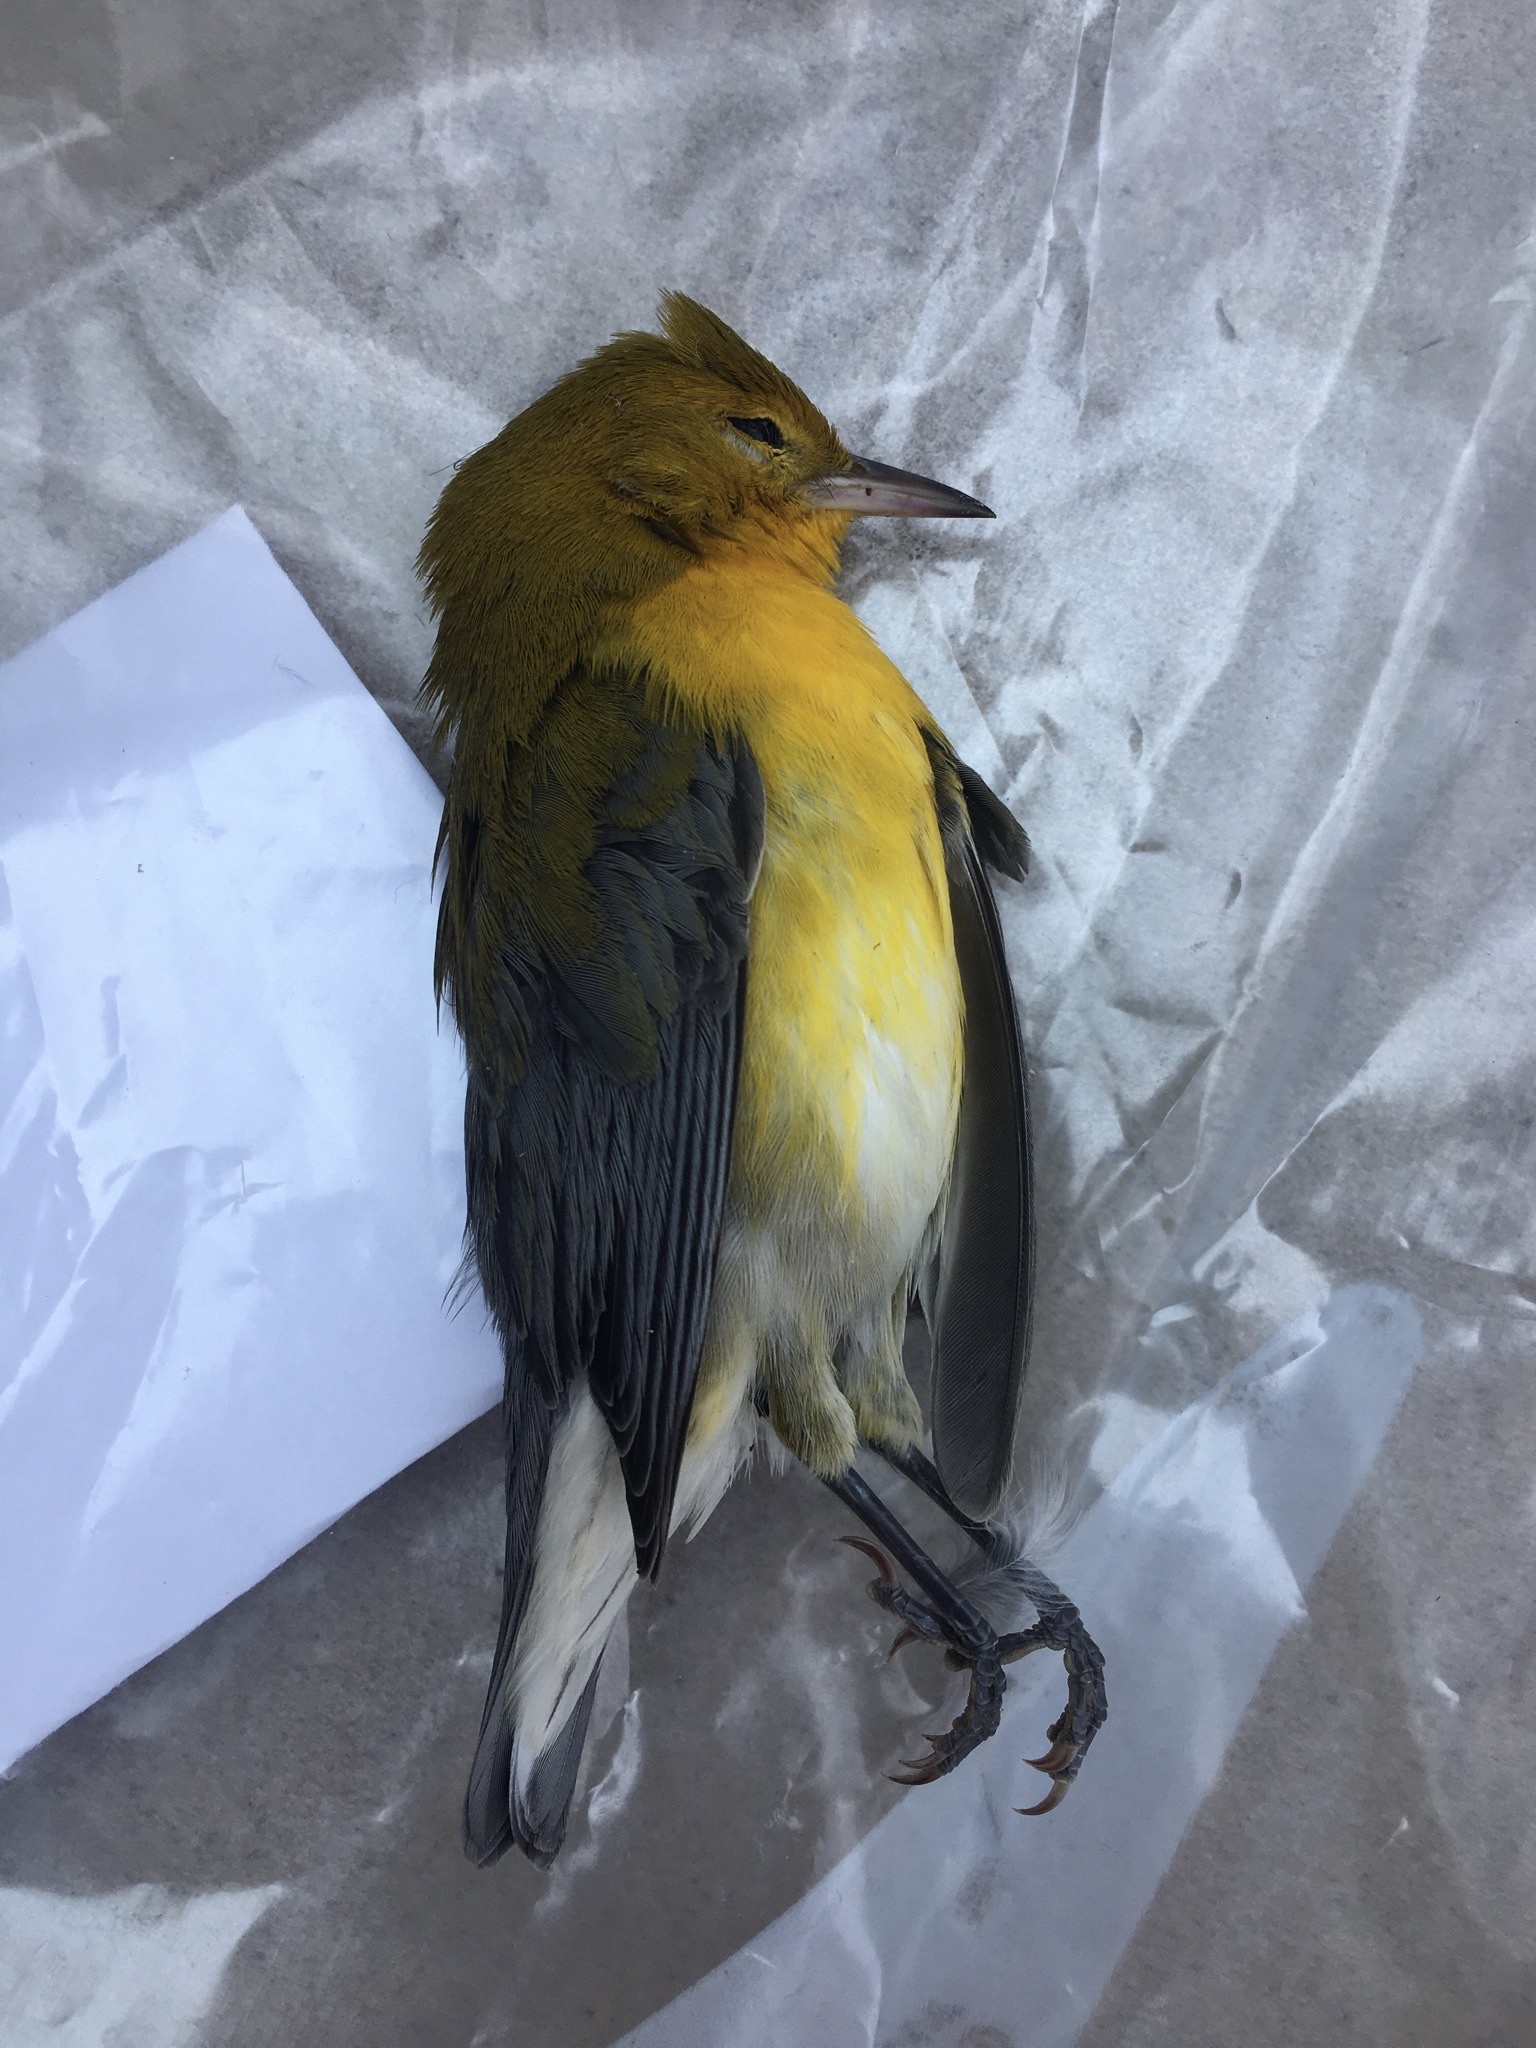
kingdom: Animalia
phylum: Chordata
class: Aves
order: Passeriformes
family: Parulidae
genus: Protonotaria
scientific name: Protonotaria citrea
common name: Prothonotary warbler
